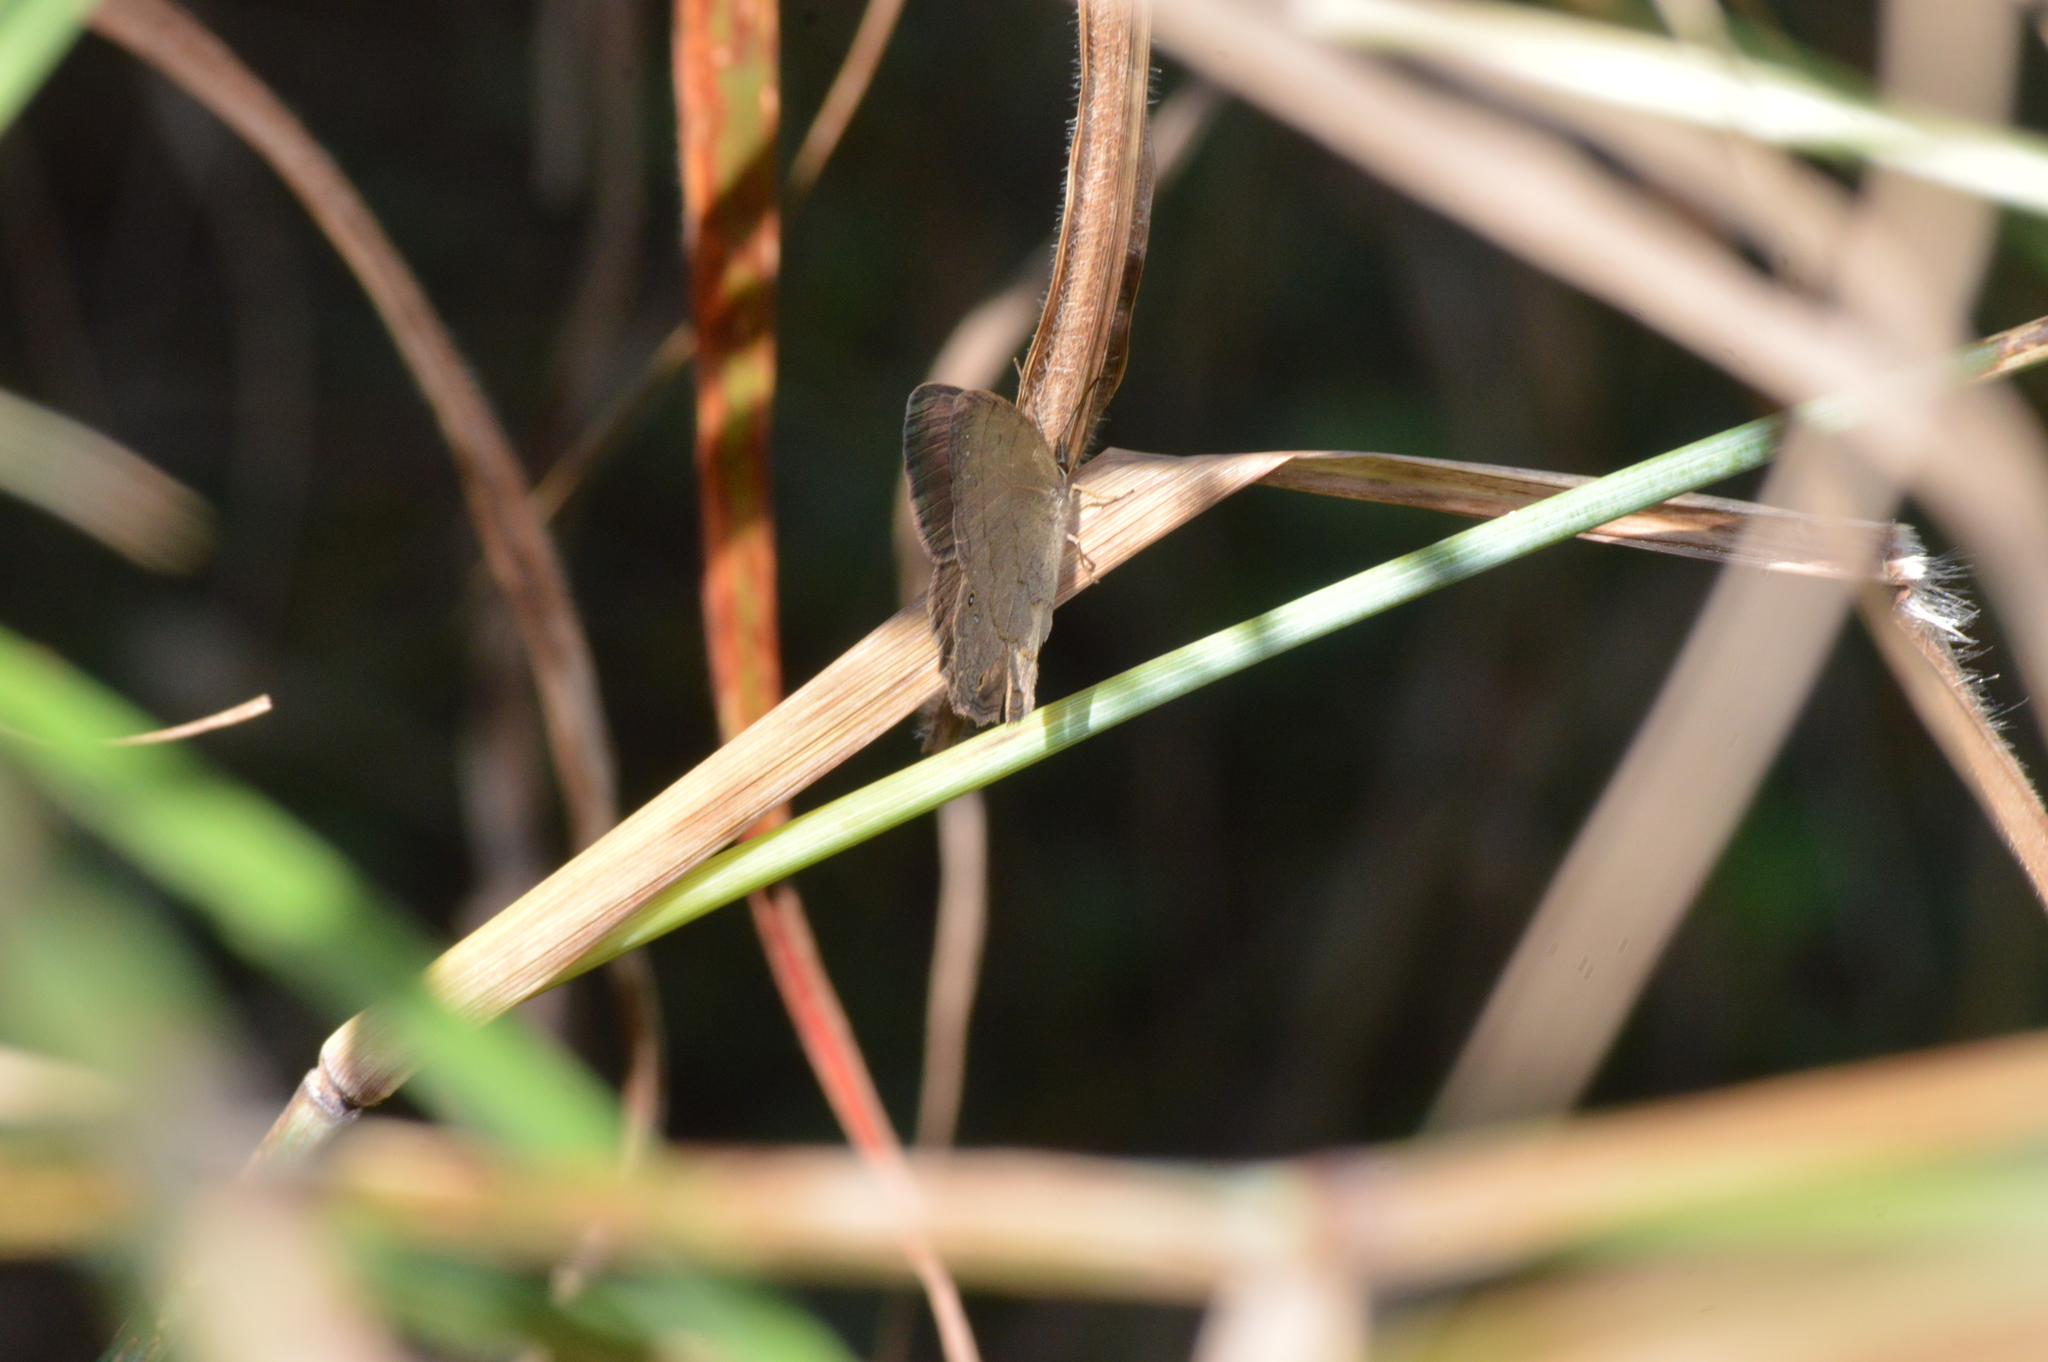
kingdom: Animalia
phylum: Arthropoda
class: Insecta
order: Lepidoptera
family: Nymphalidae
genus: Euptychia
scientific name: Euptychia Cissia eous
